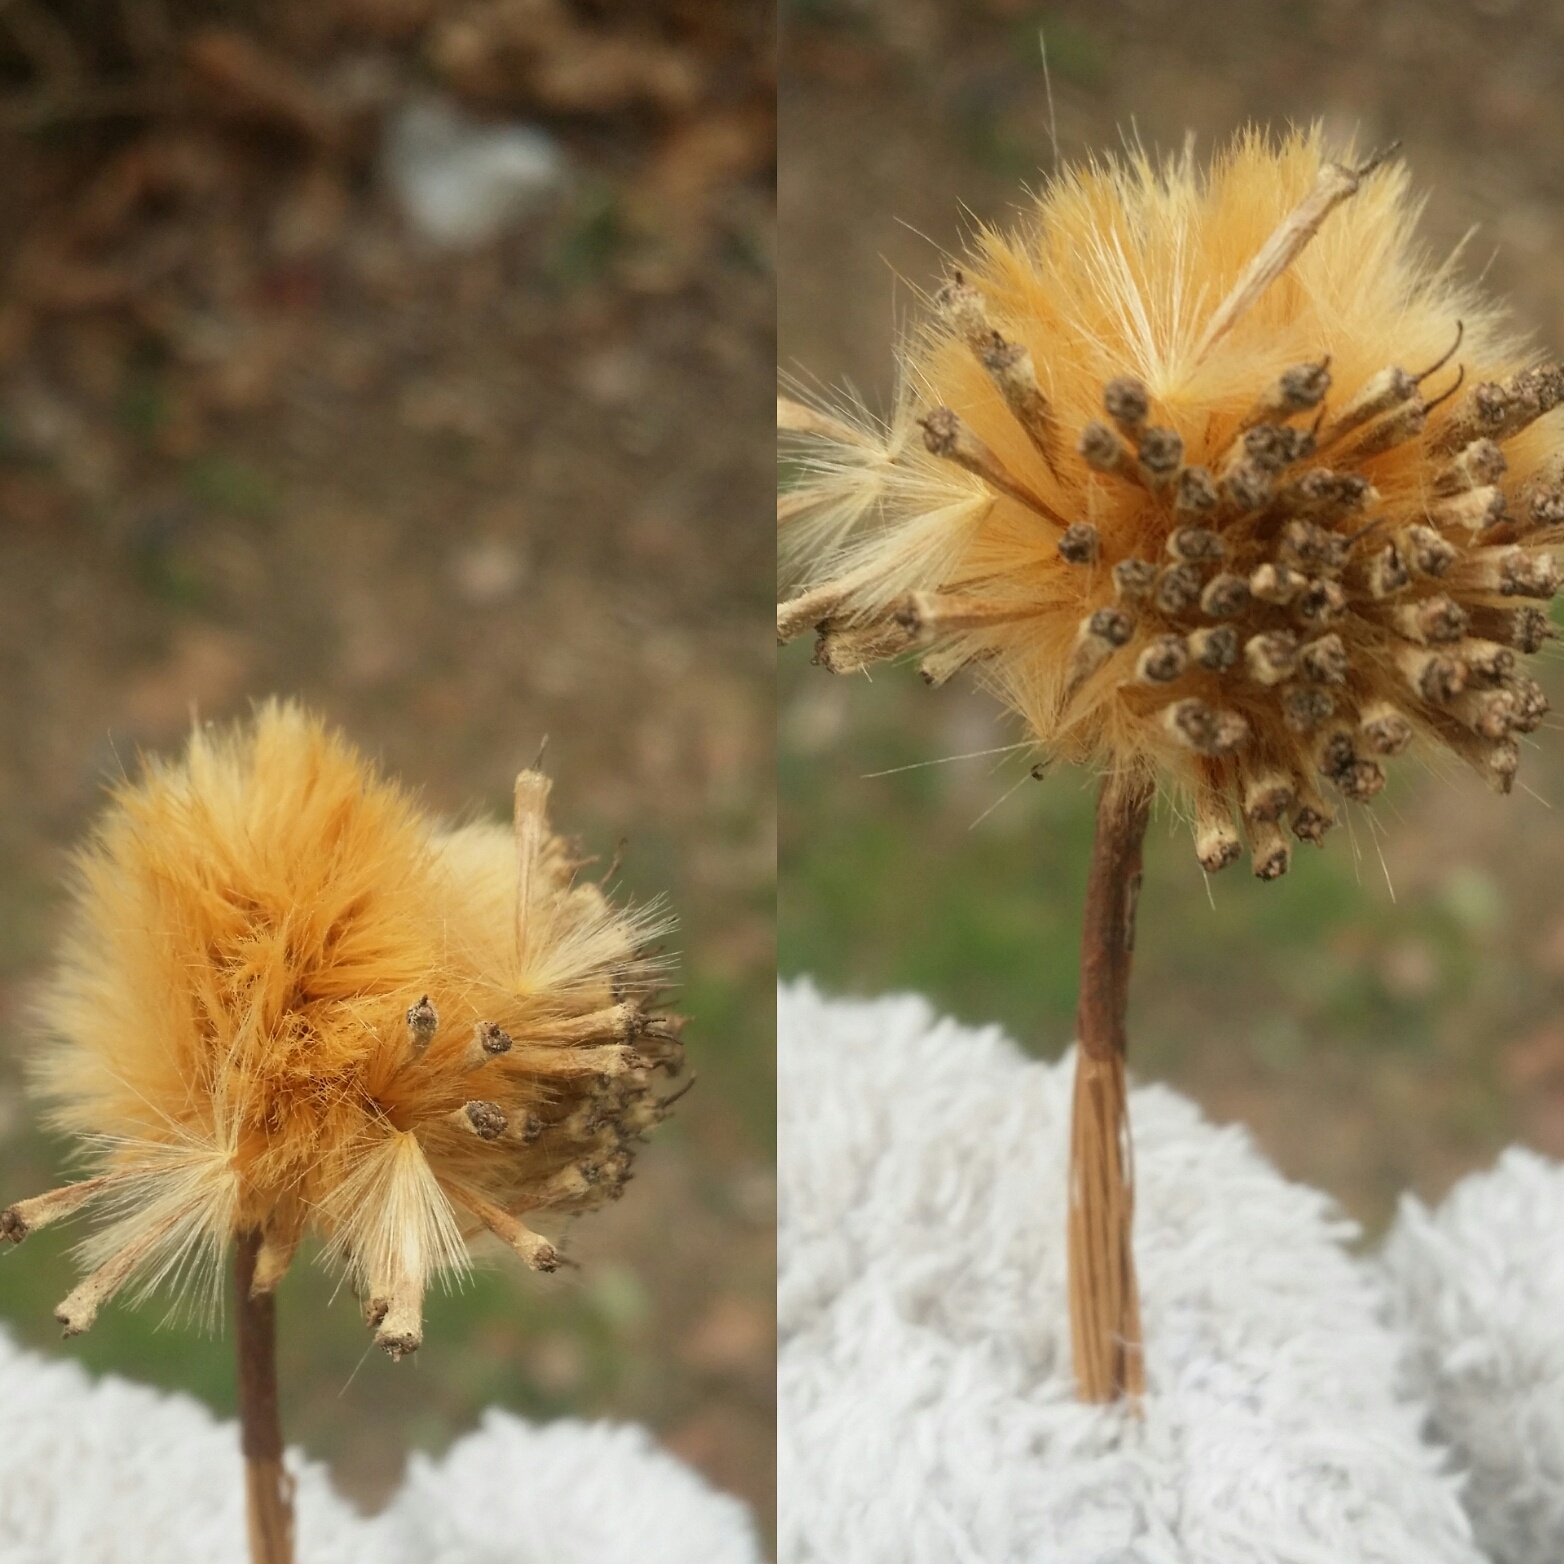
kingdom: Plantae
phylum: Tracheophyta
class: Magnoliopsida
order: Proteales
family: Platanaceae
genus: Platanus
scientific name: Platanus occidentalis
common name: American sycamore
